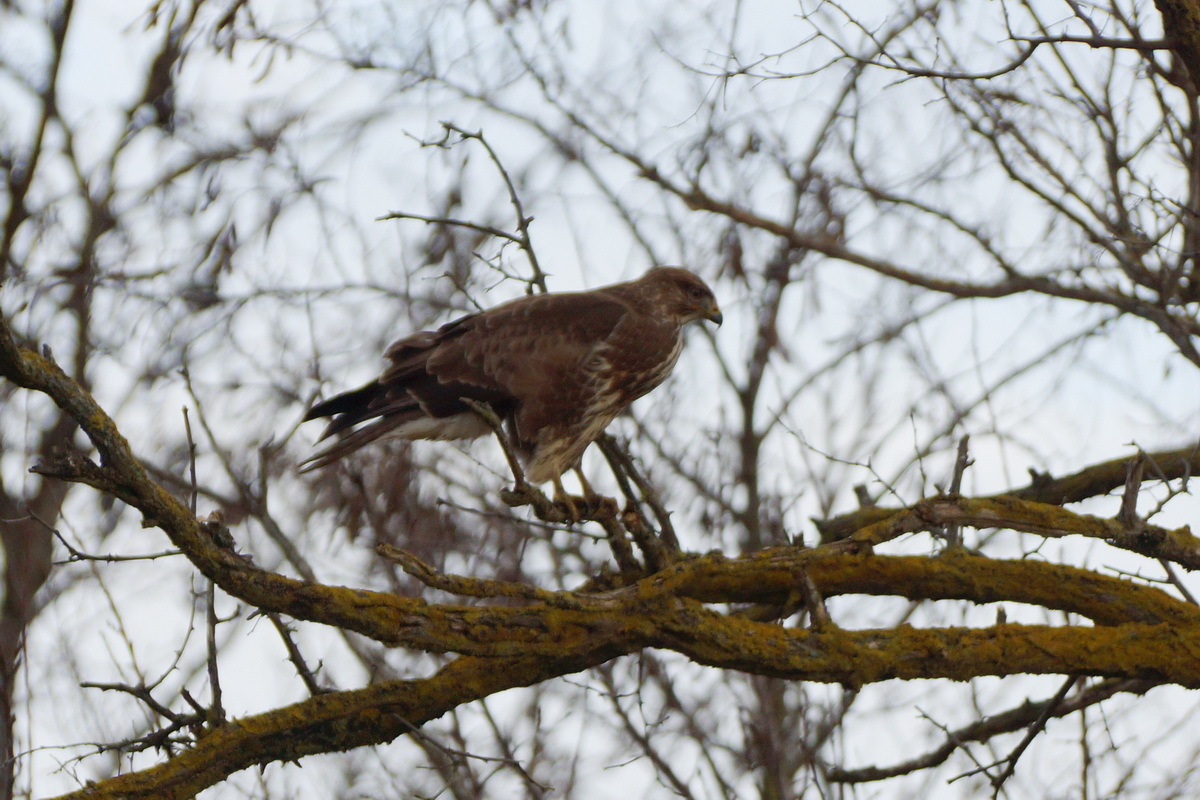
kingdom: Animalia
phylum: Chordata
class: Aves
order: Accipitriformes
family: Accipitridae
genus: Buteo
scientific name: Buteo buteo
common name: Common buzzard
